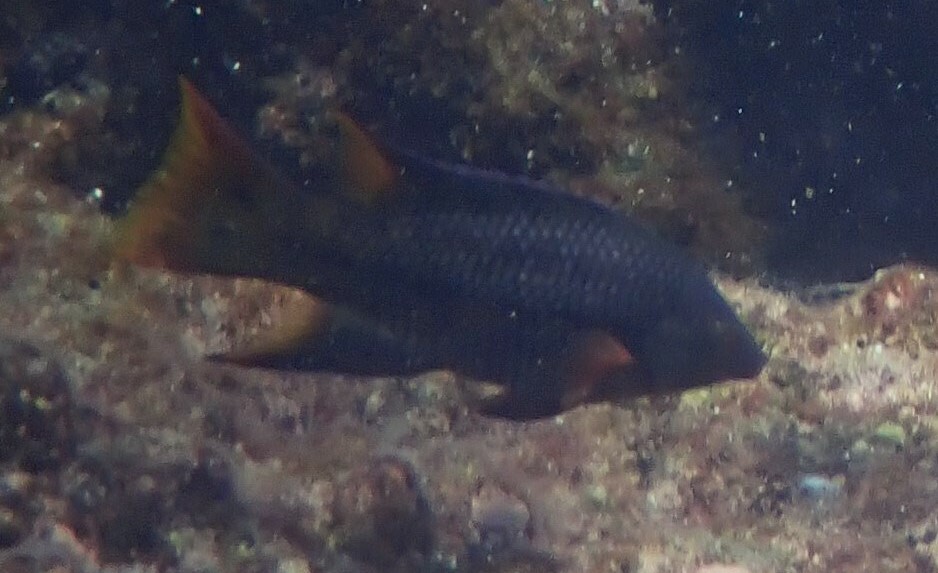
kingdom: Animalia
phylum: Chordata
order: Perciformes
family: Labridae
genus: Bodianus
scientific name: Bodianus diplotaenia
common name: Mexican hogfish
